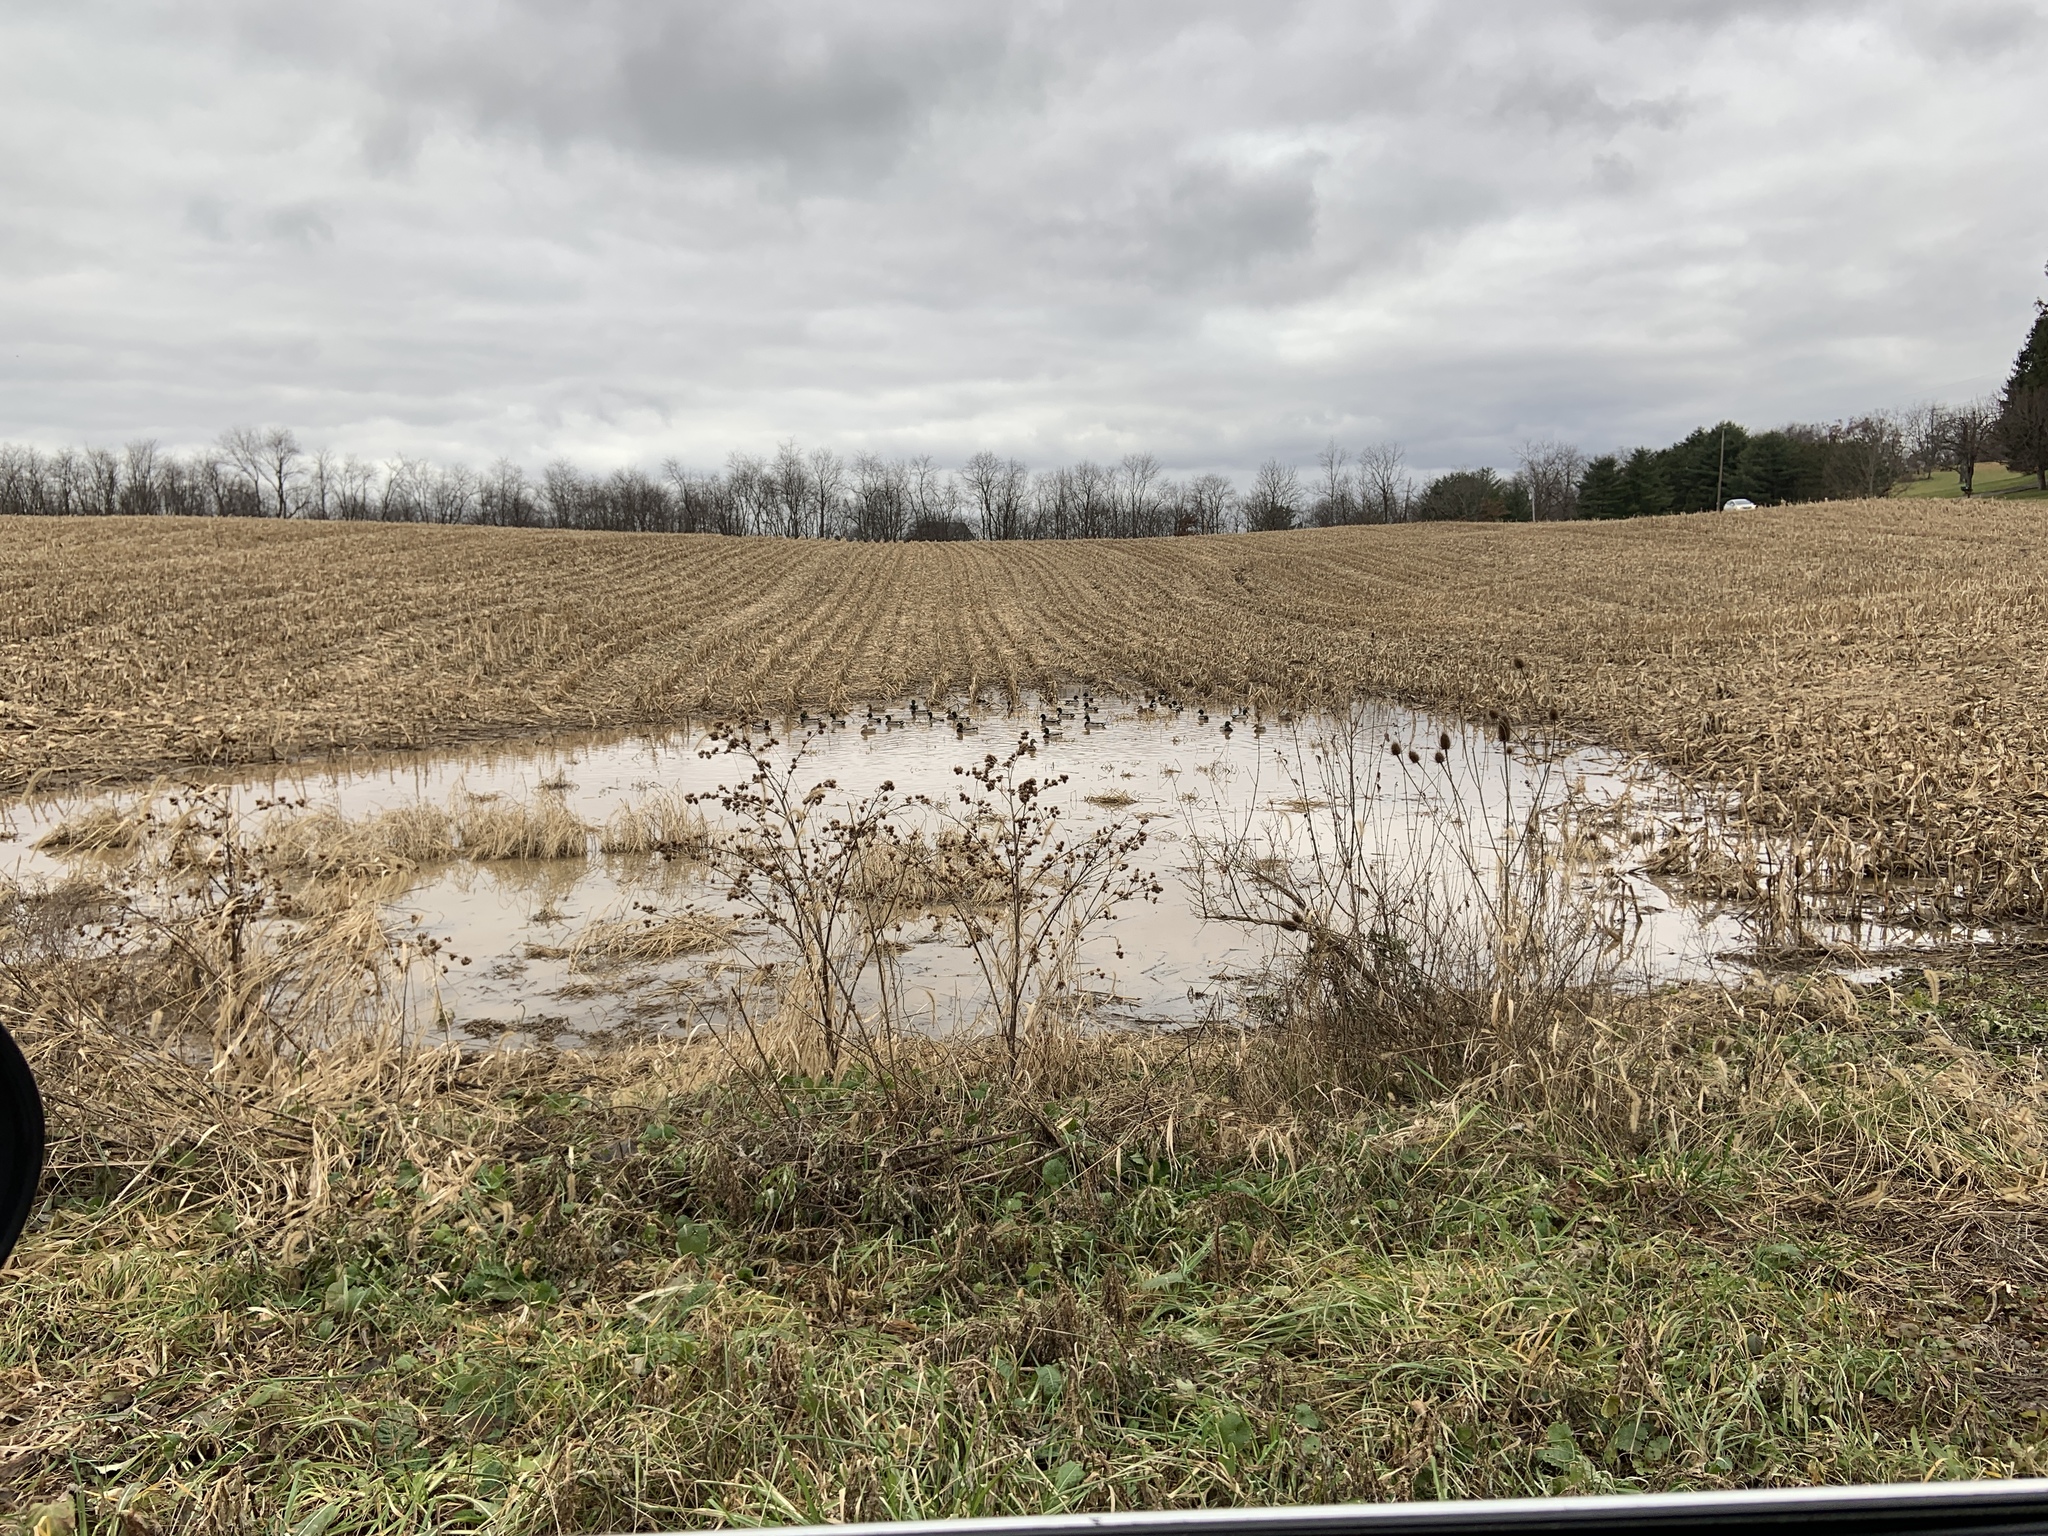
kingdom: Animalia
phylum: Chordata
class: Aves
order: Anseriformes
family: Anatidae
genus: Anas
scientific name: Anas platyrhynchos
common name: Mallard
